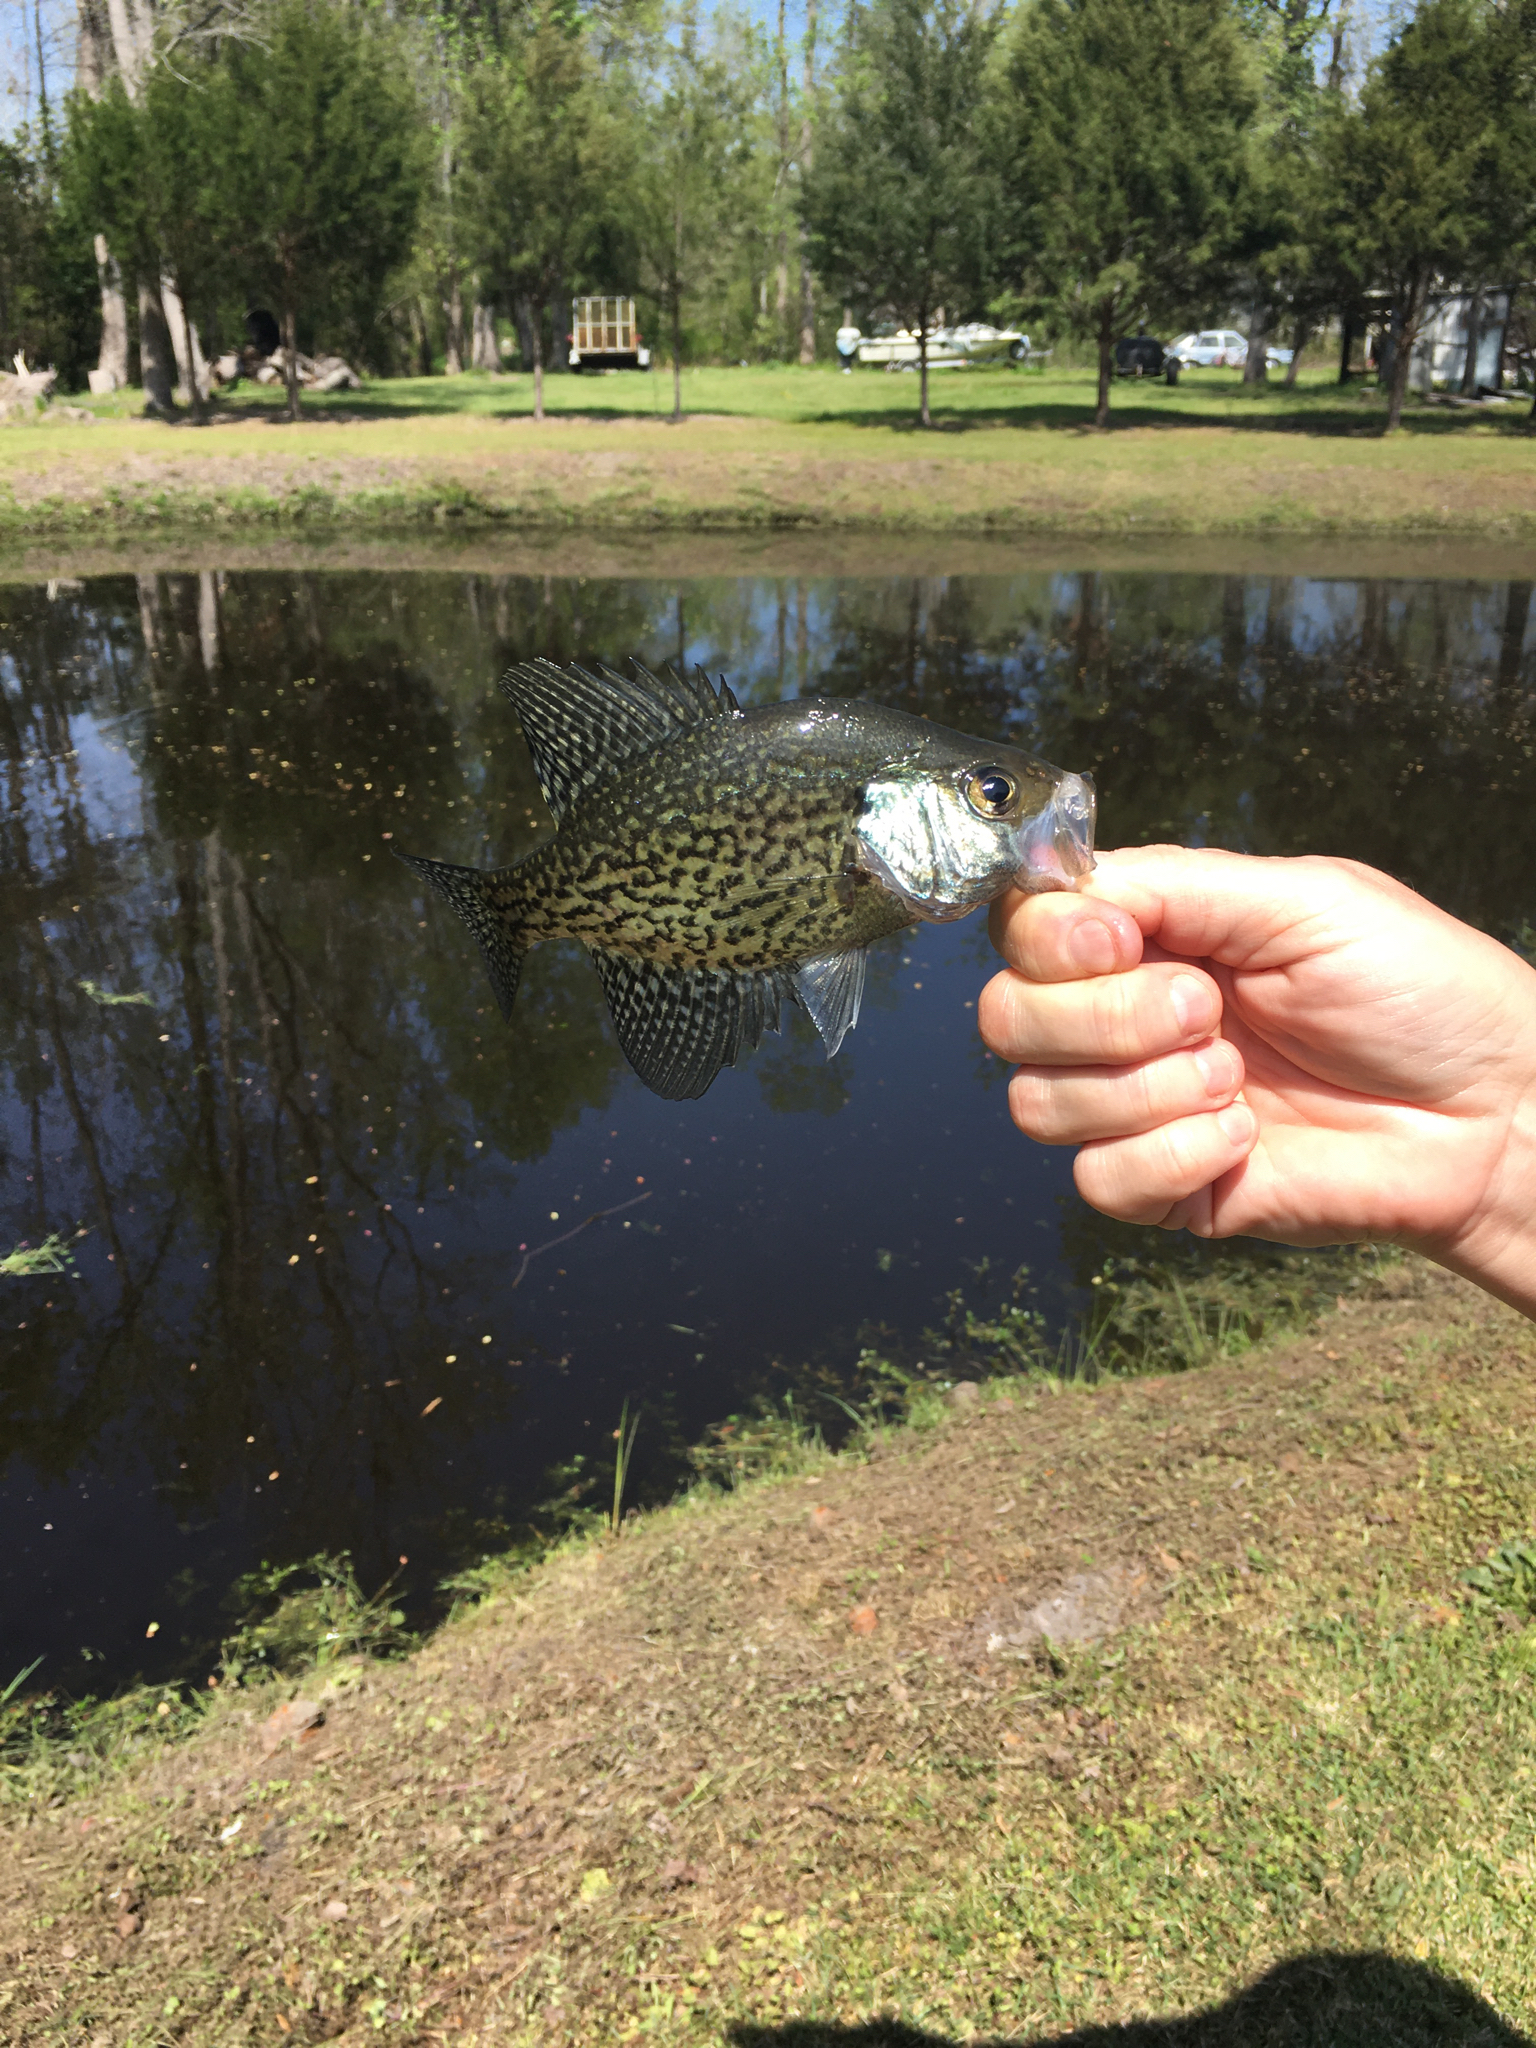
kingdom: Animalia
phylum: Chordata
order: Perciformes
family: Centrarchidae
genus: Pomoxis
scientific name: Pomoxis nigromaculatus
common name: Black crappie
